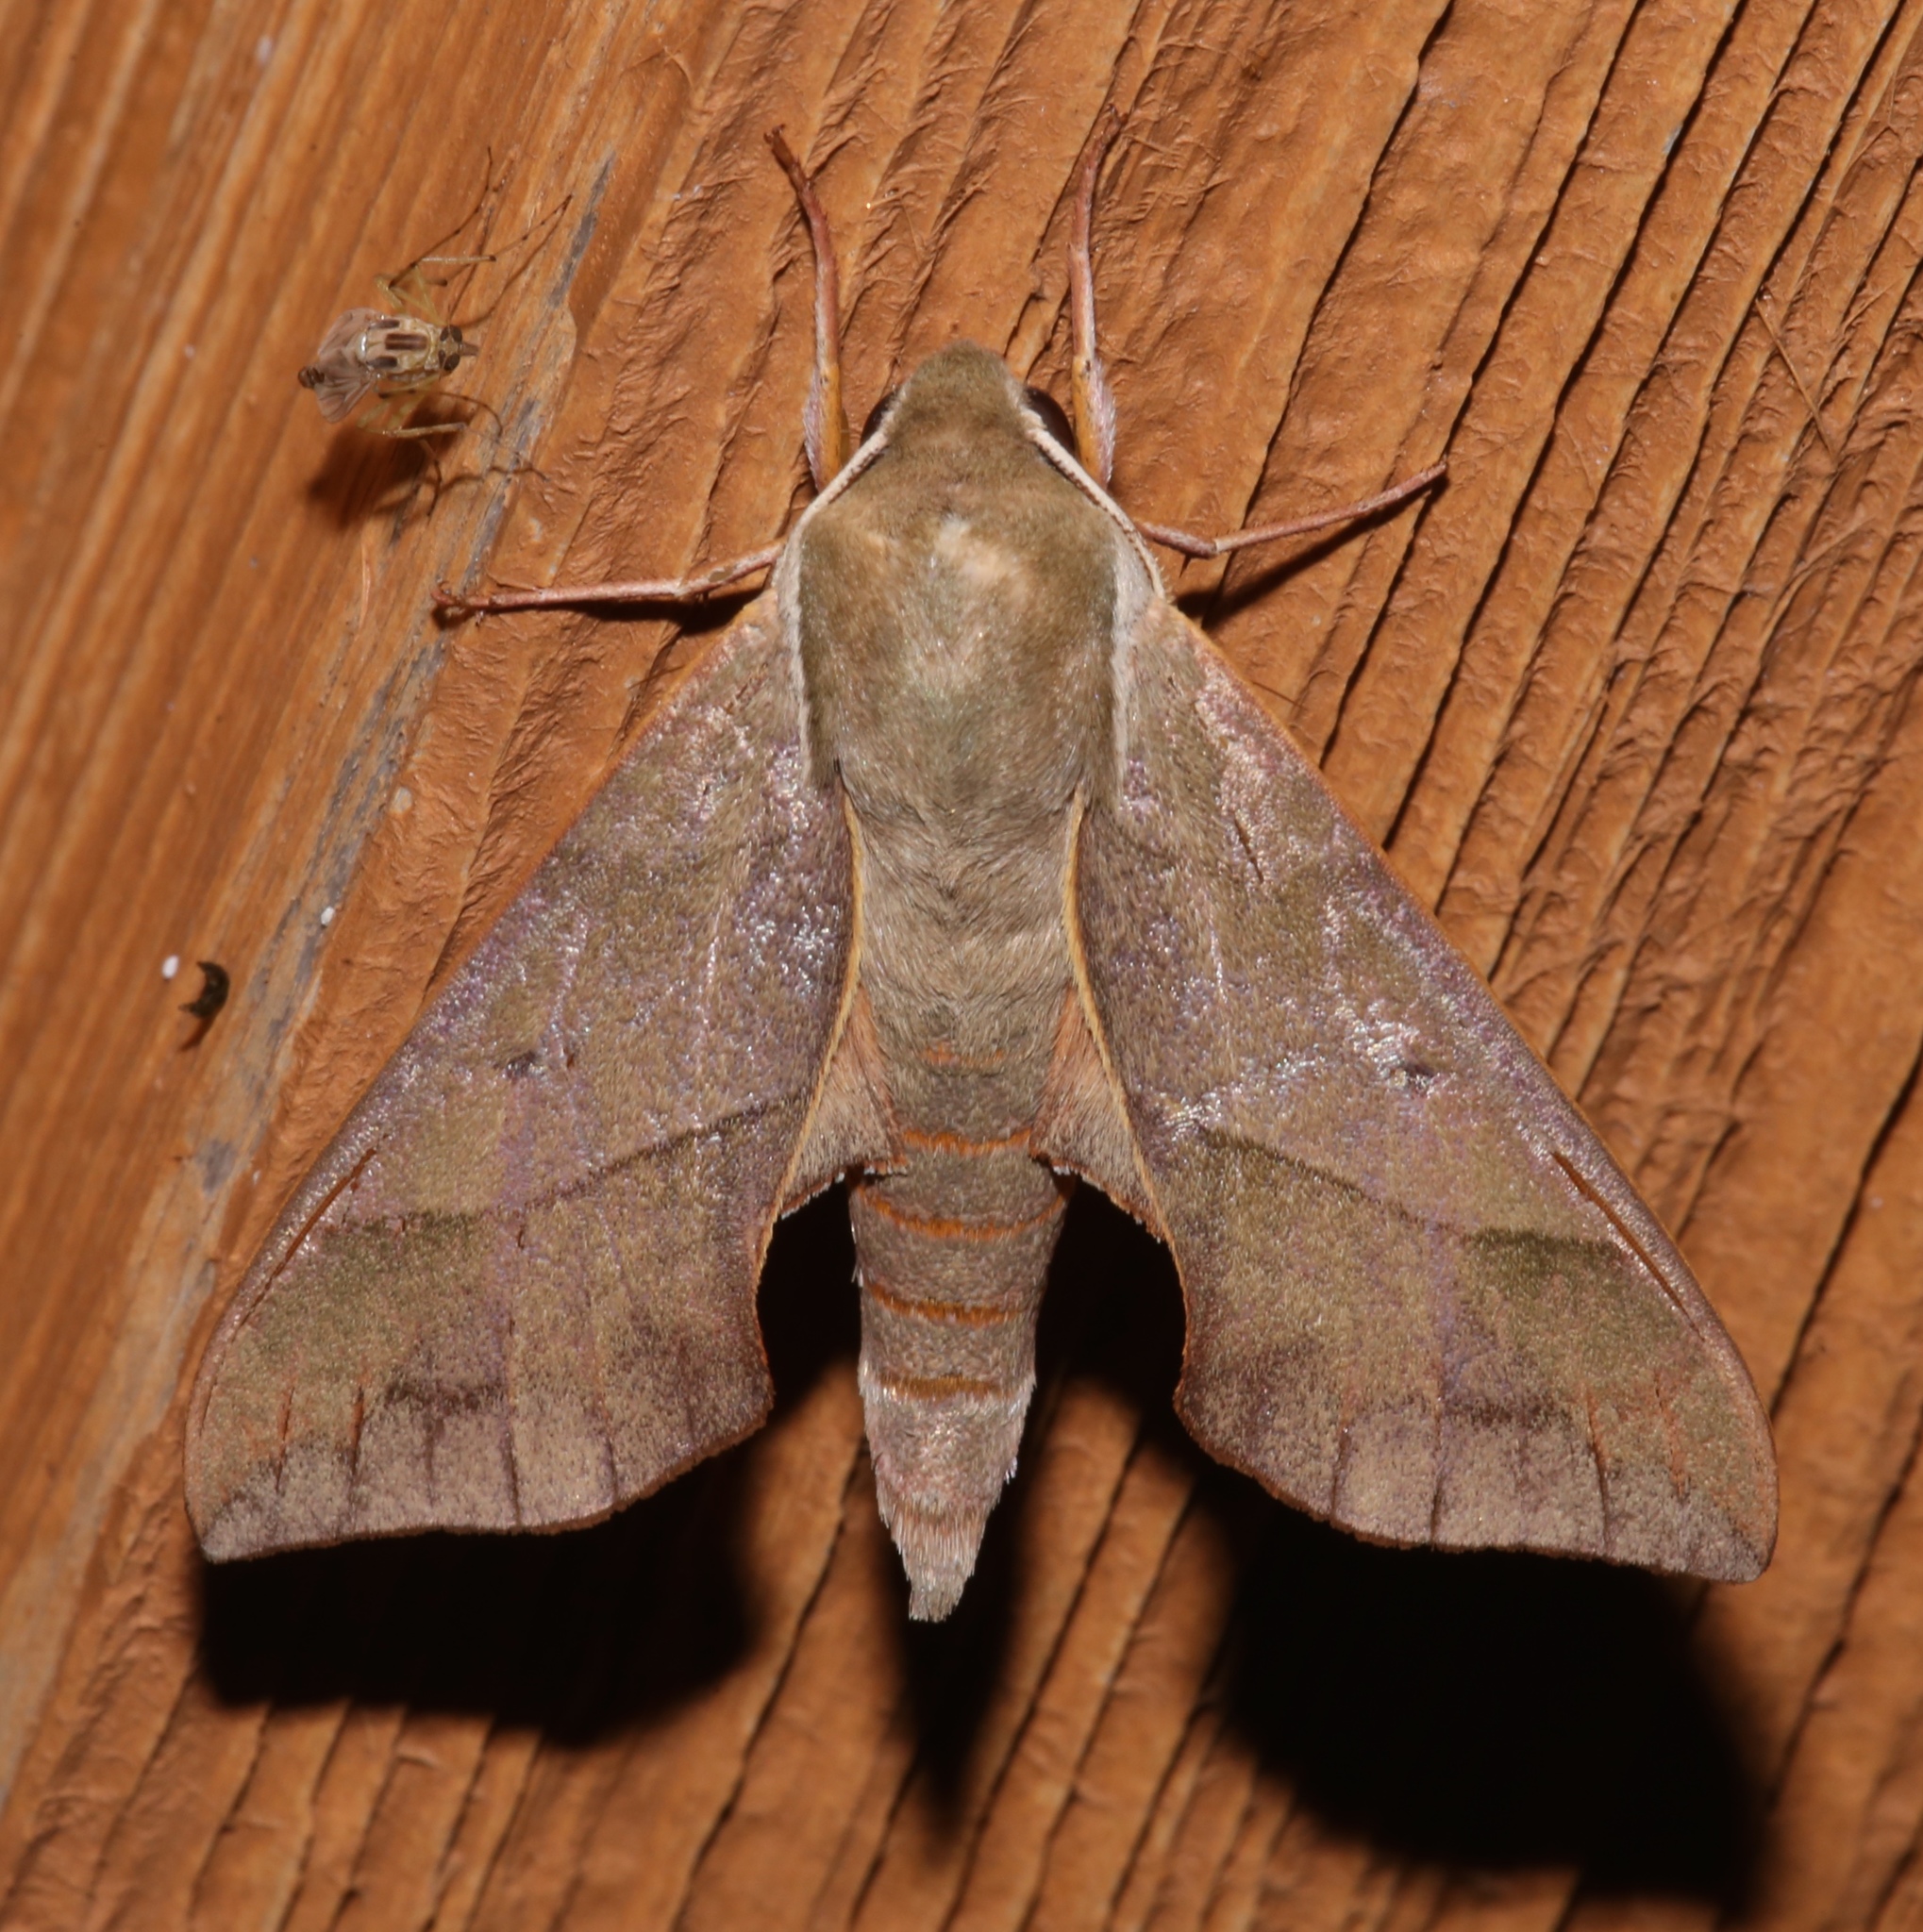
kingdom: Animalia
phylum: Arthropoda
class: Insecta
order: Lepidoptera
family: Sphingidae
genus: Darapsa
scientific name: Darapsa myron
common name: Hog sphinx
